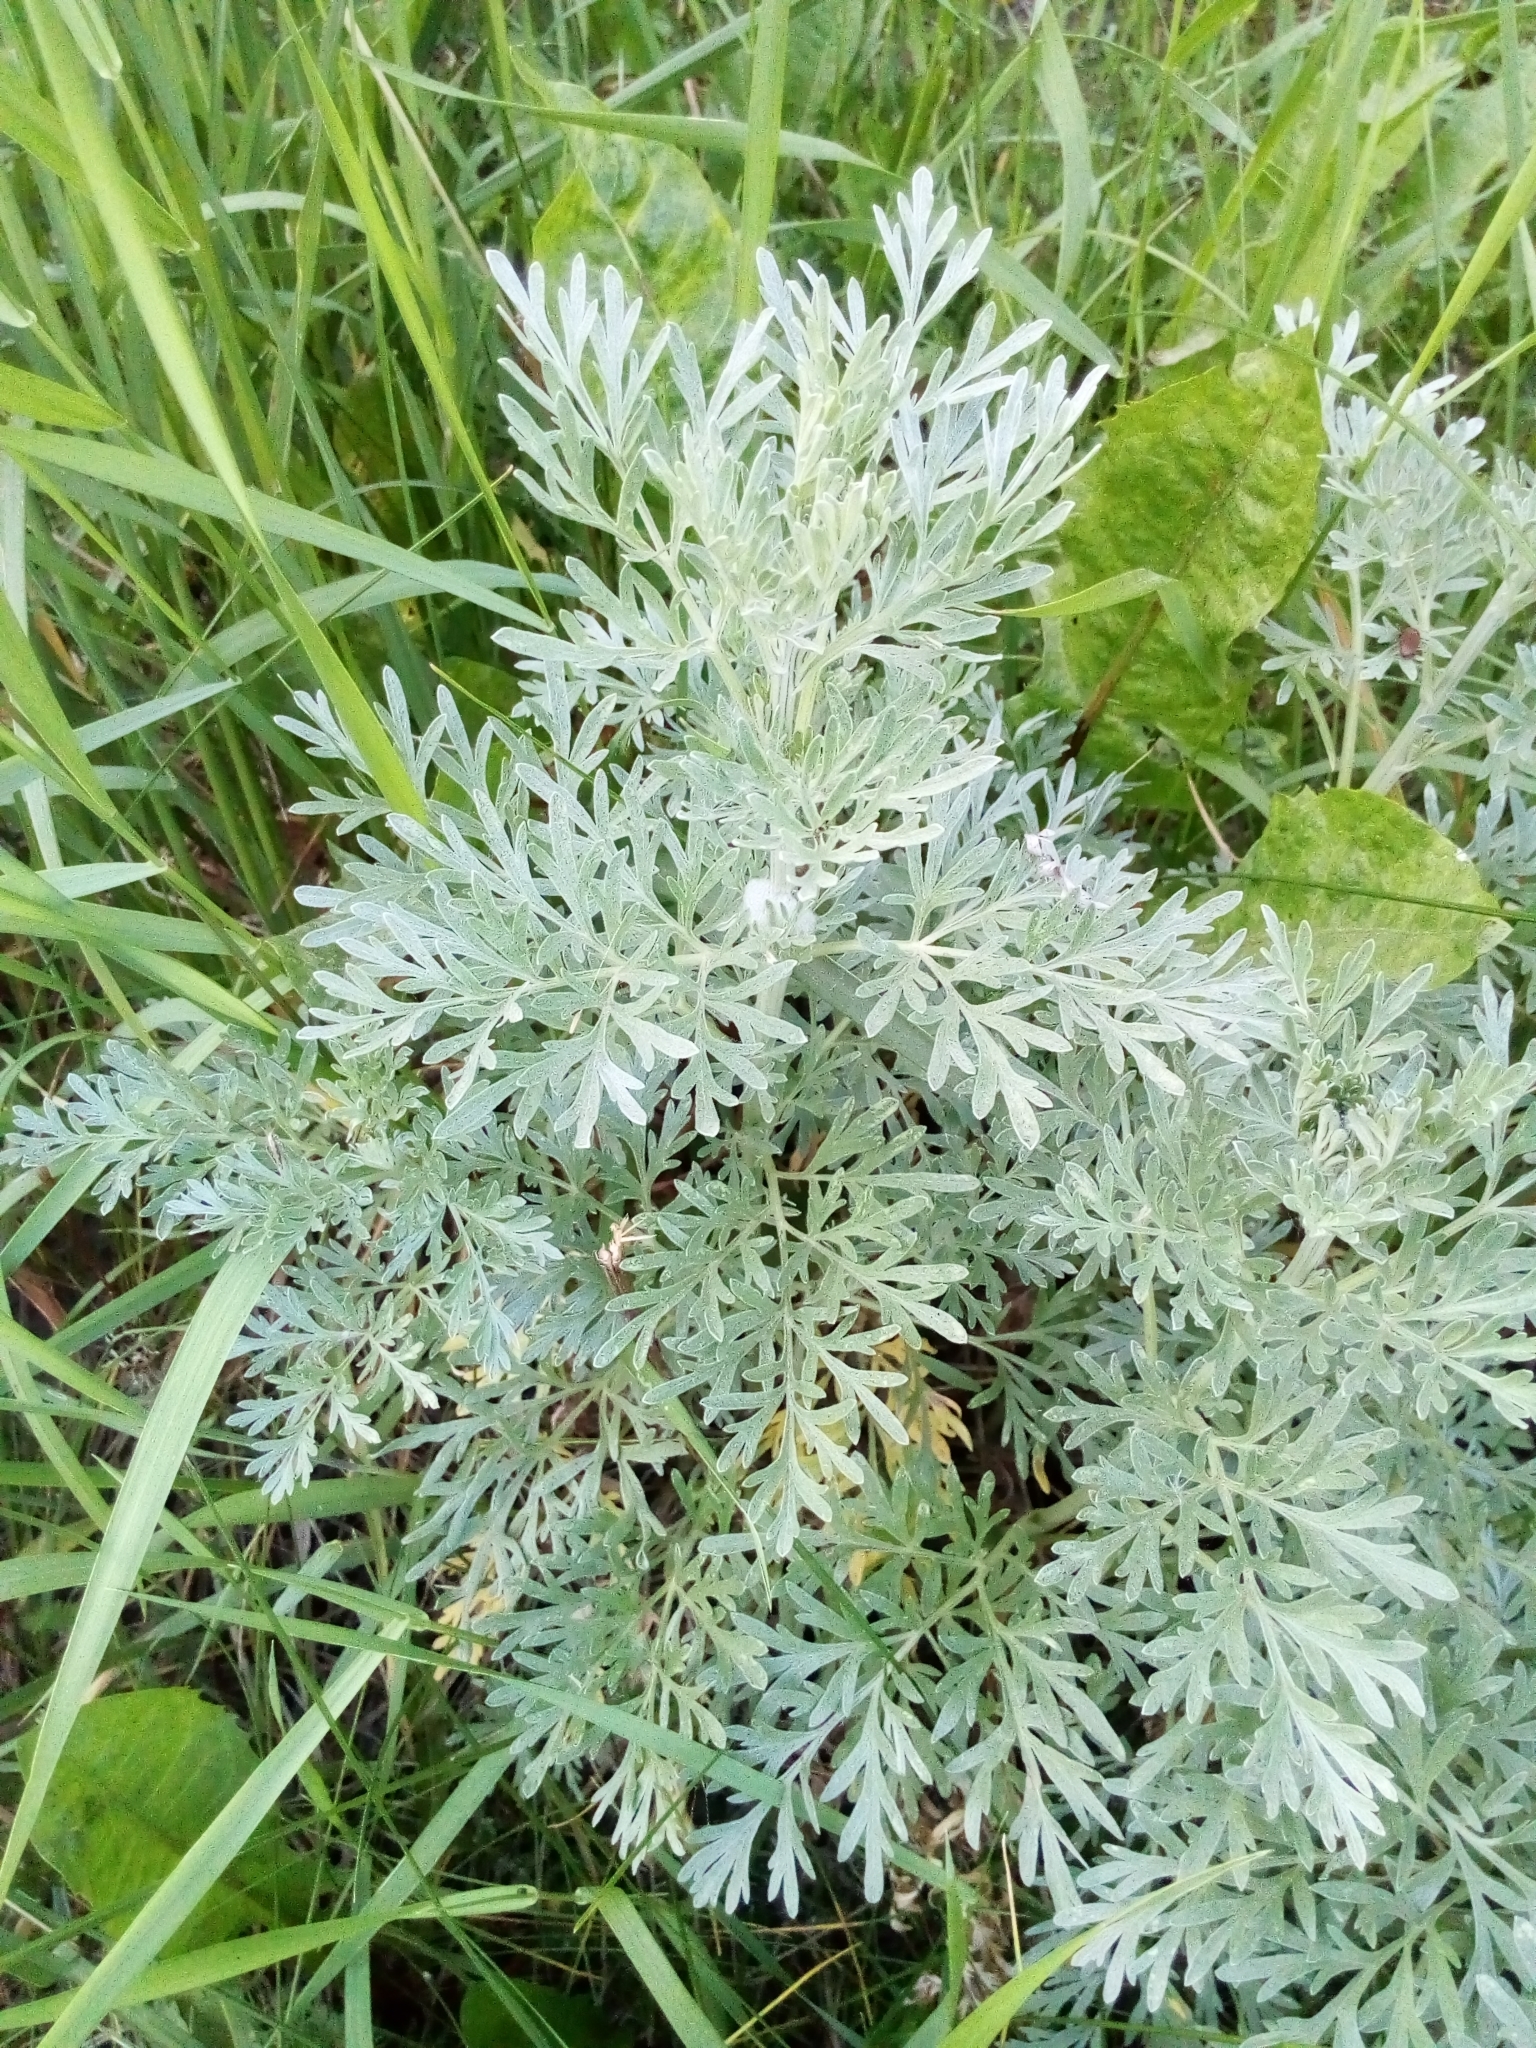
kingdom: Plantae
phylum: Tracheophyta
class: Magnoliopsida
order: Asterales
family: Asteraceae
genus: Artemisia
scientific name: Artemisia absinthium
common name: Wormwood
